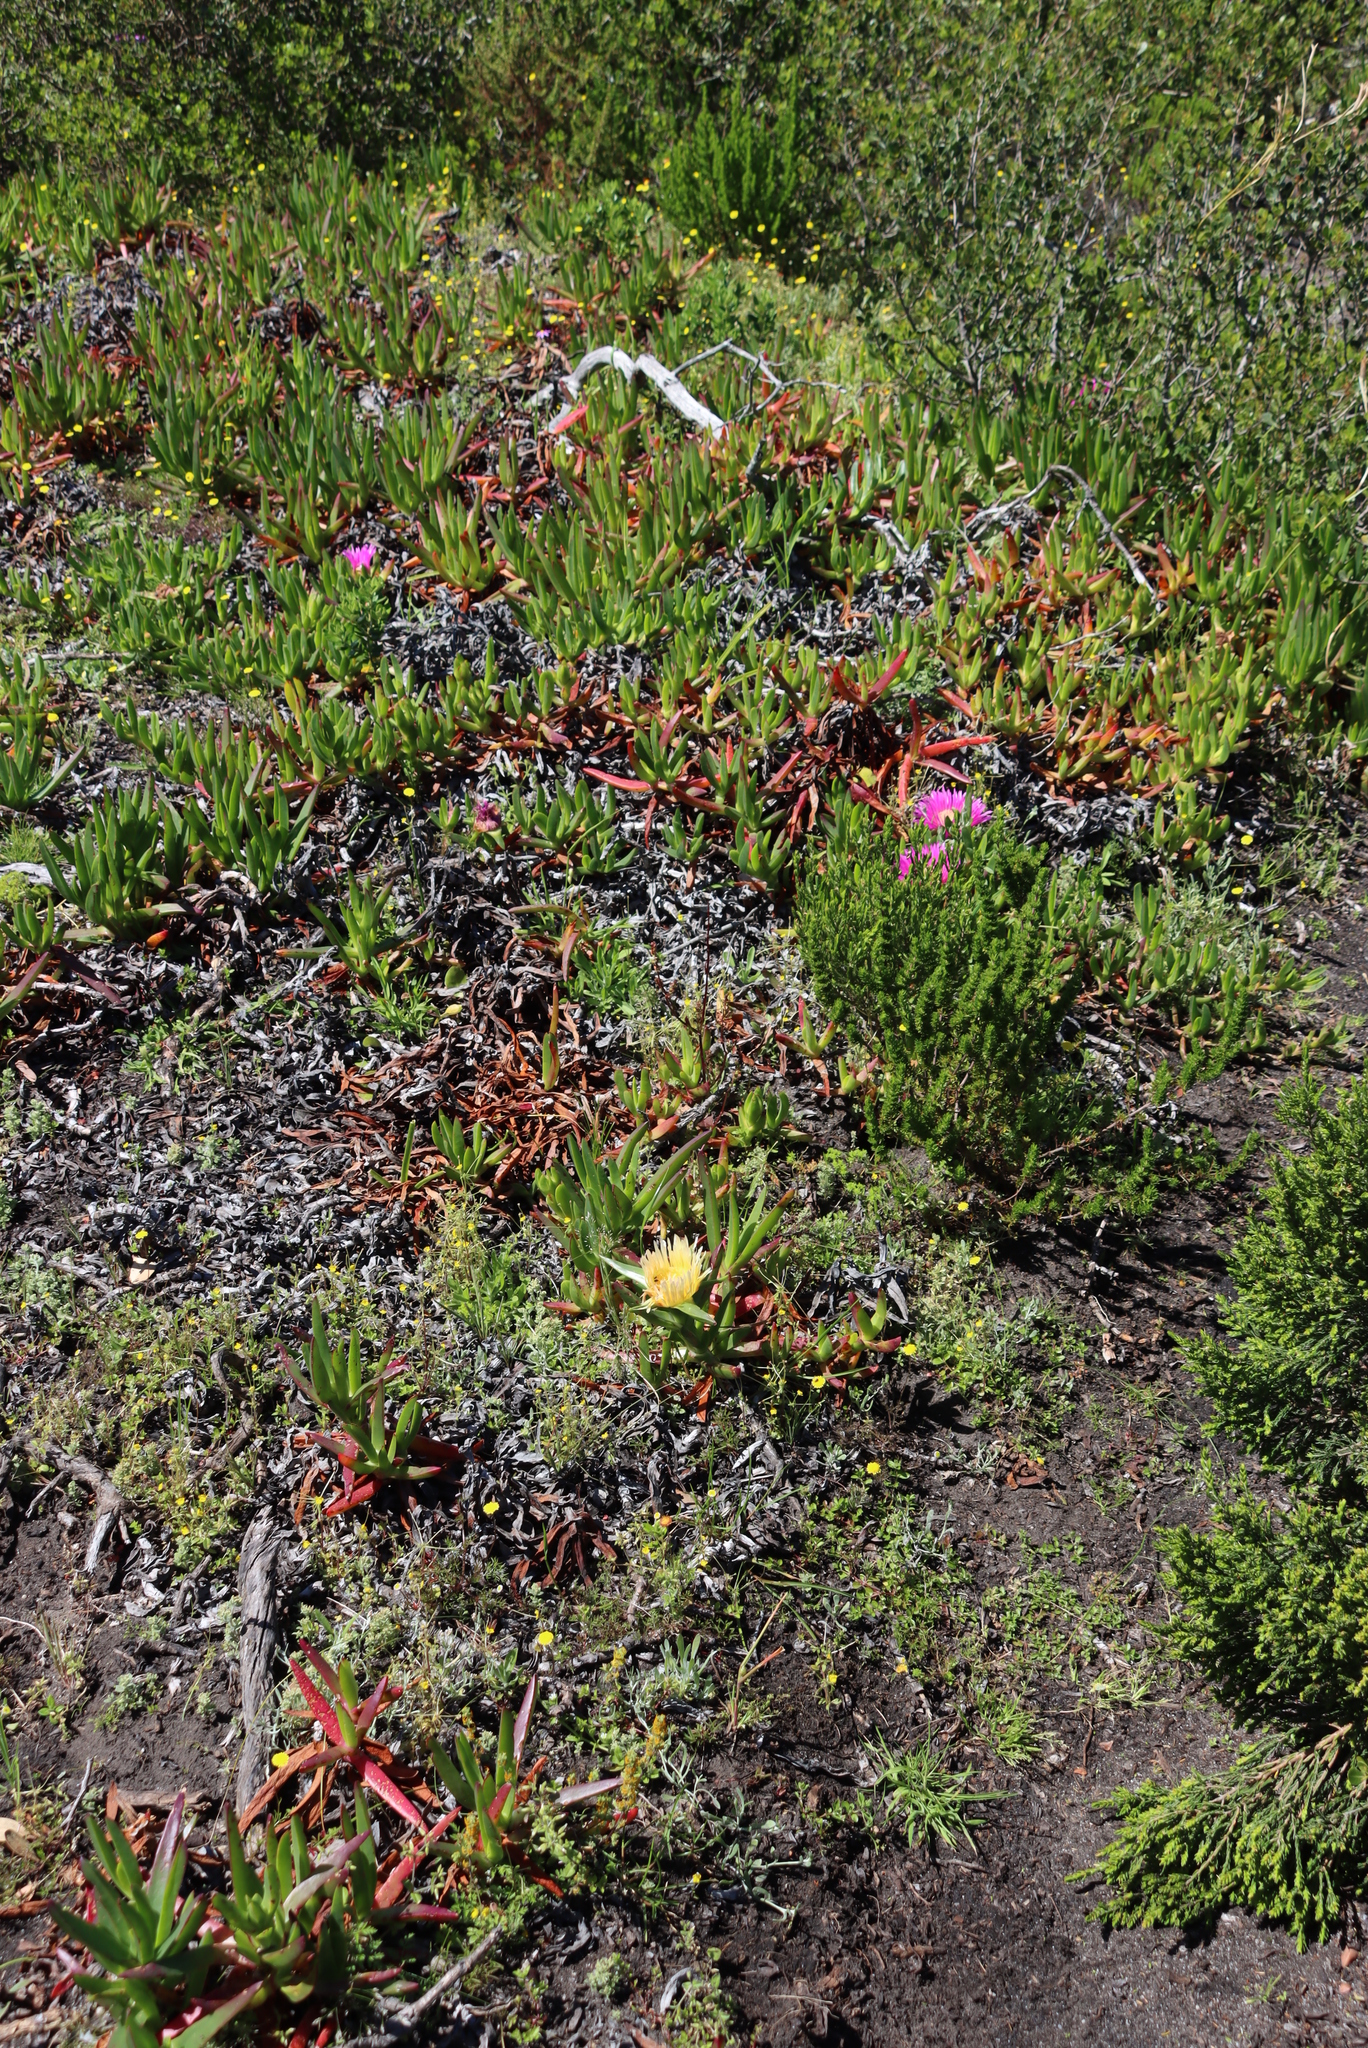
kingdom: Plantae
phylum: Tracheophyta
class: Magnoliopsida
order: Caryophyllales
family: Aizoaceae
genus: Carpobrotus
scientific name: Carpobrotus edulis
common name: Hottentot-fig
